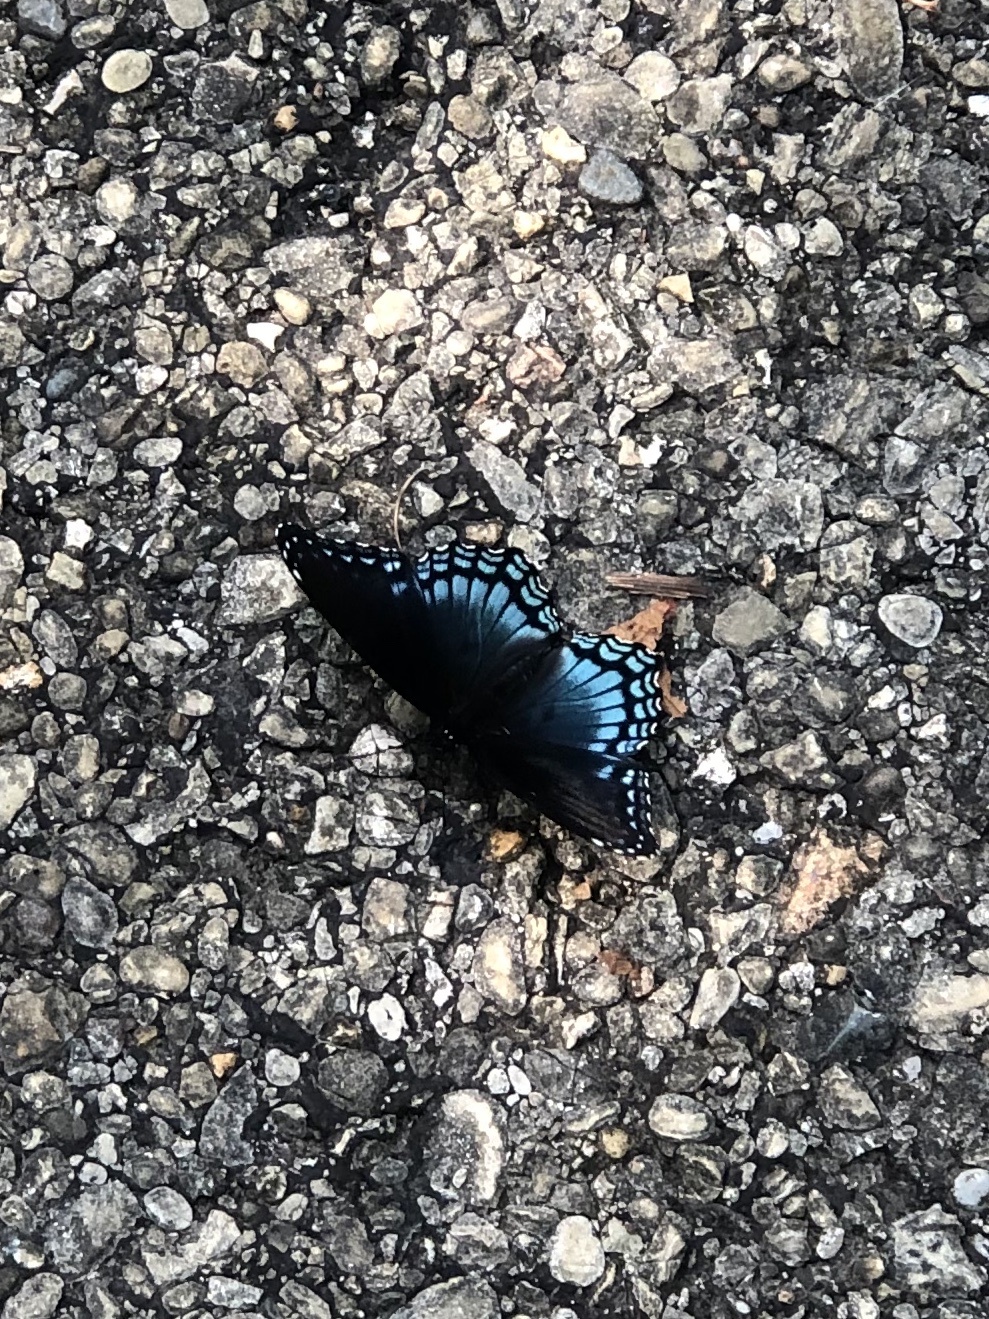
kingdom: Animalia
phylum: Arthropoda
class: Insecta
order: Lepidoptera
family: Nymphalidae
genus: Limenitis
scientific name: Limenitis arthemis
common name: Red-spotted admiral
